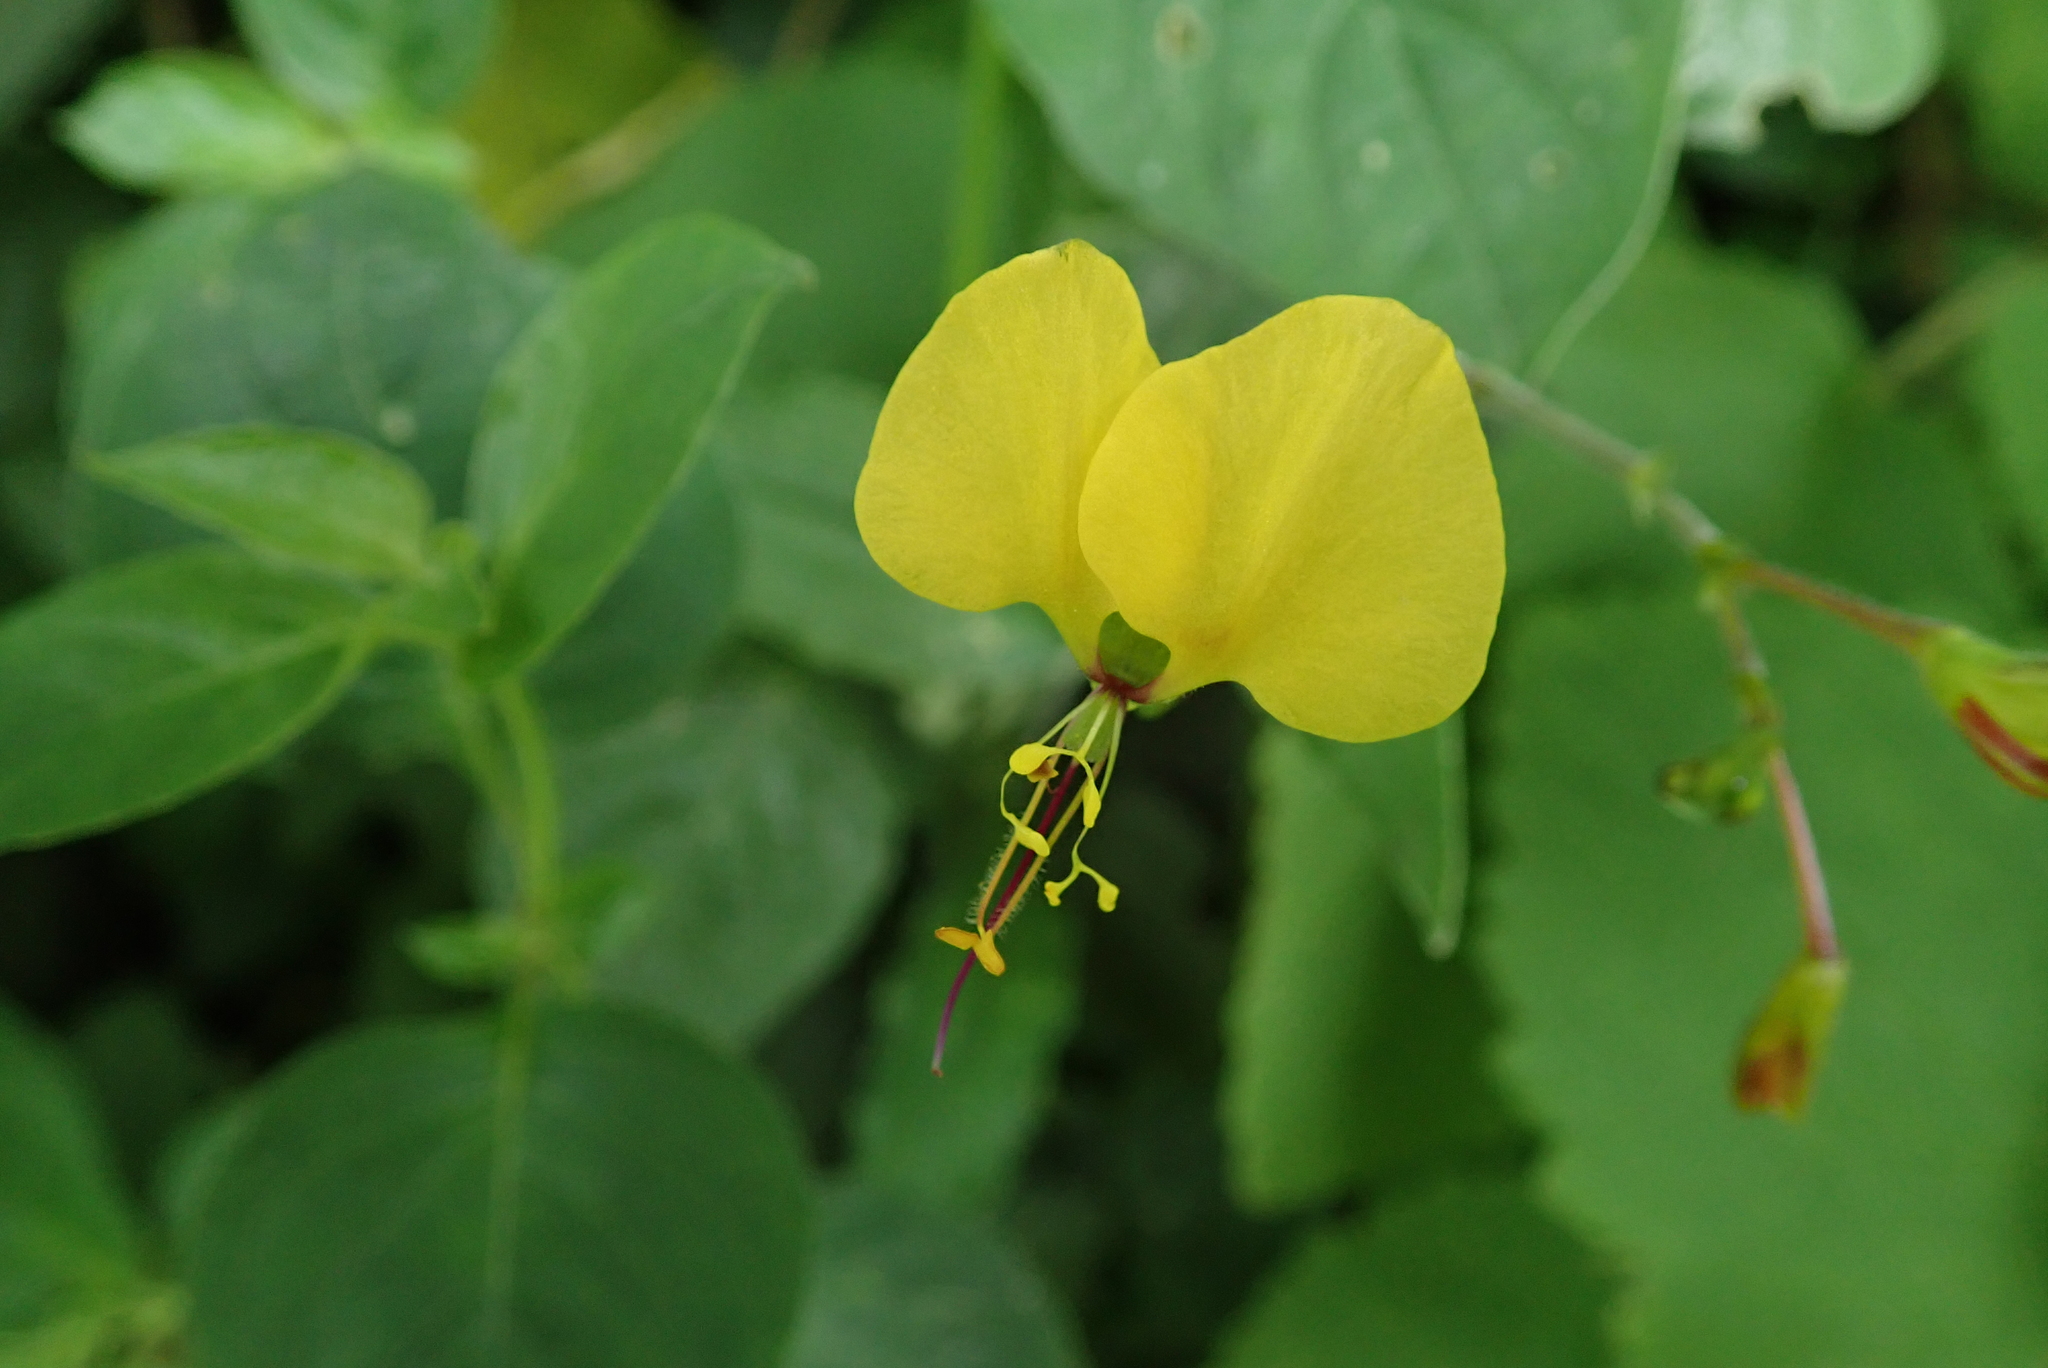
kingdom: Plantae
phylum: Tracheophyta
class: Liliopsida
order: Commelinales
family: Commelinaceae
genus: Aneilema
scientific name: Aneilema aequinoctiale
